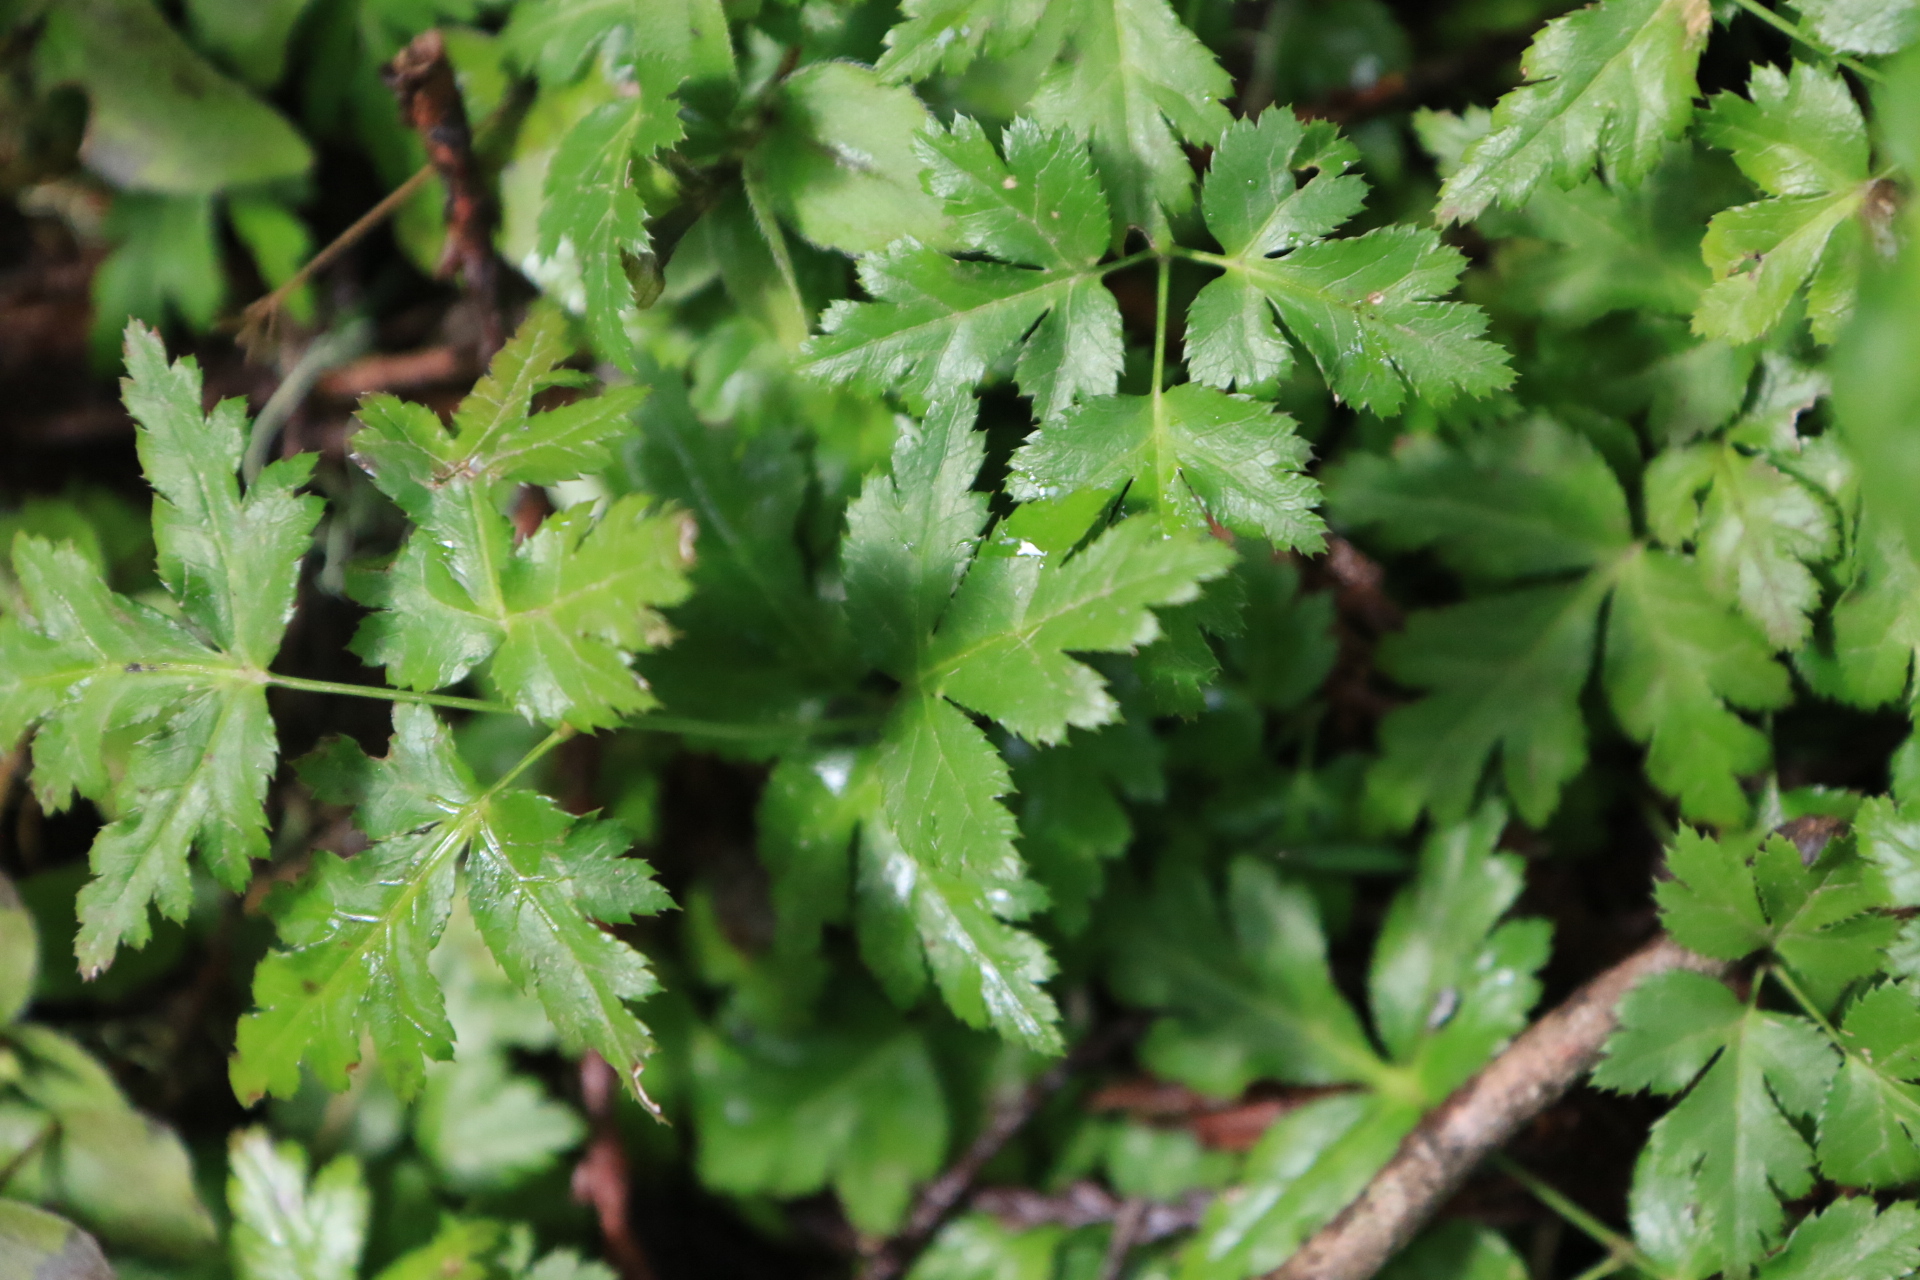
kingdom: Plantae
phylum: Tracheophyta
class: Magnoliopsida
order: Ranunculales
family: Ranunculaceae
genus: Coptis
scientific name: Coptis laciniata
